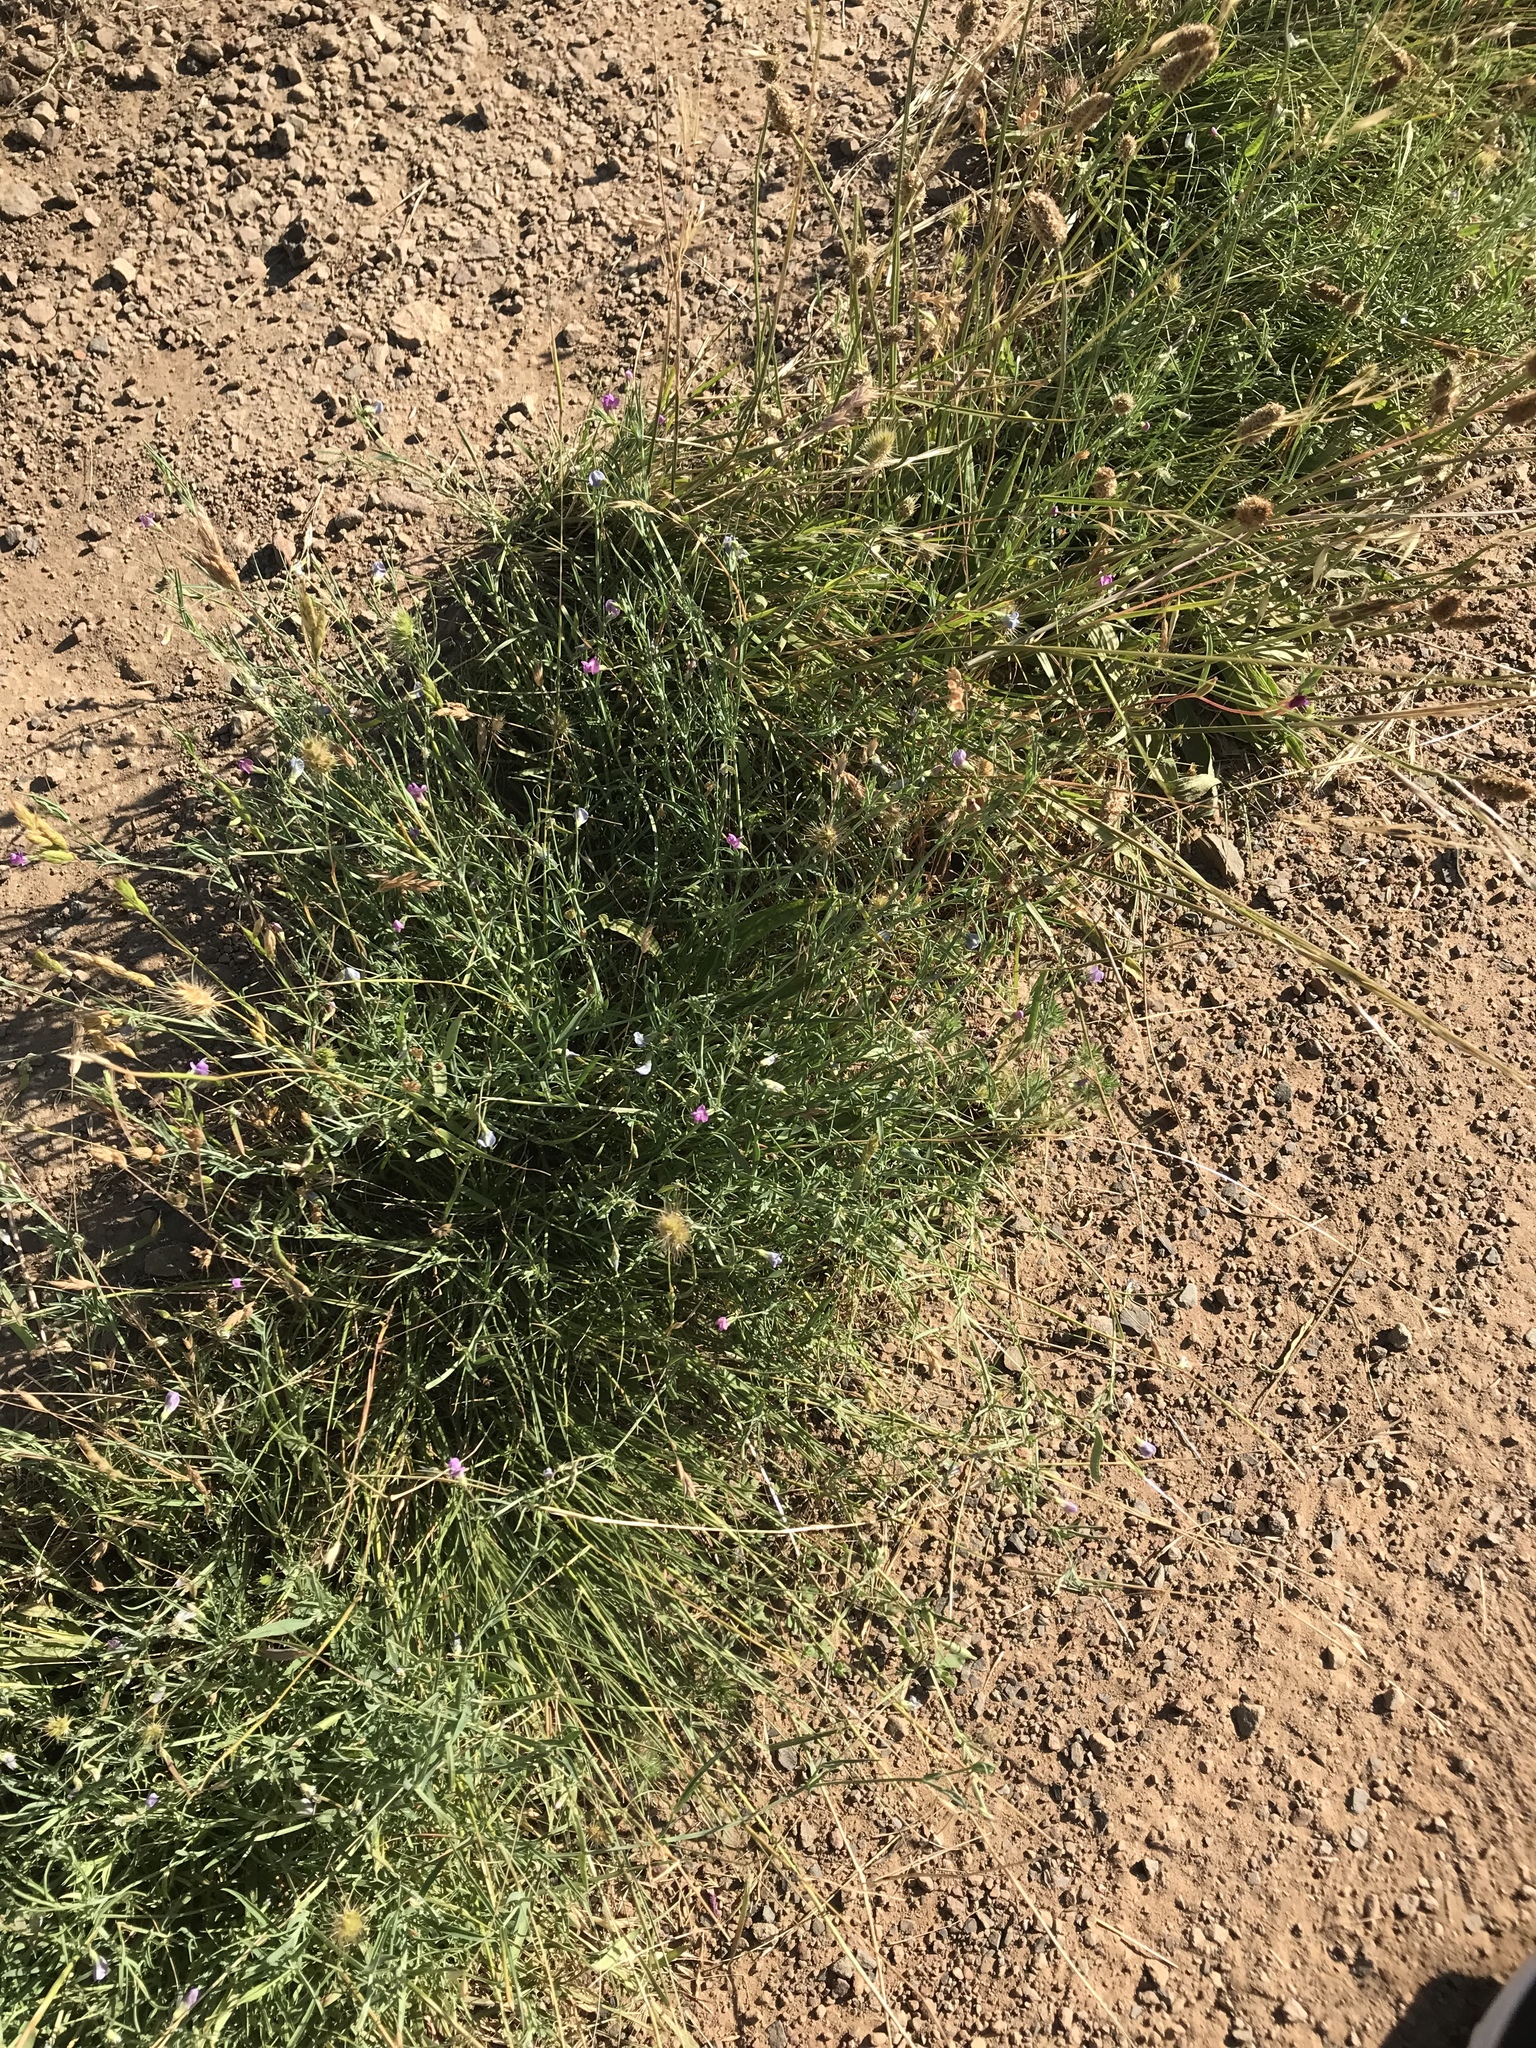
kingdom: Plantae
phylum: Tracheophyta
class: Magnoliopsida
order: Fabales
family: Fabaceae
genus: Lathyrus
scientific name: Lathyrus angulatus
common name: Angular pea
